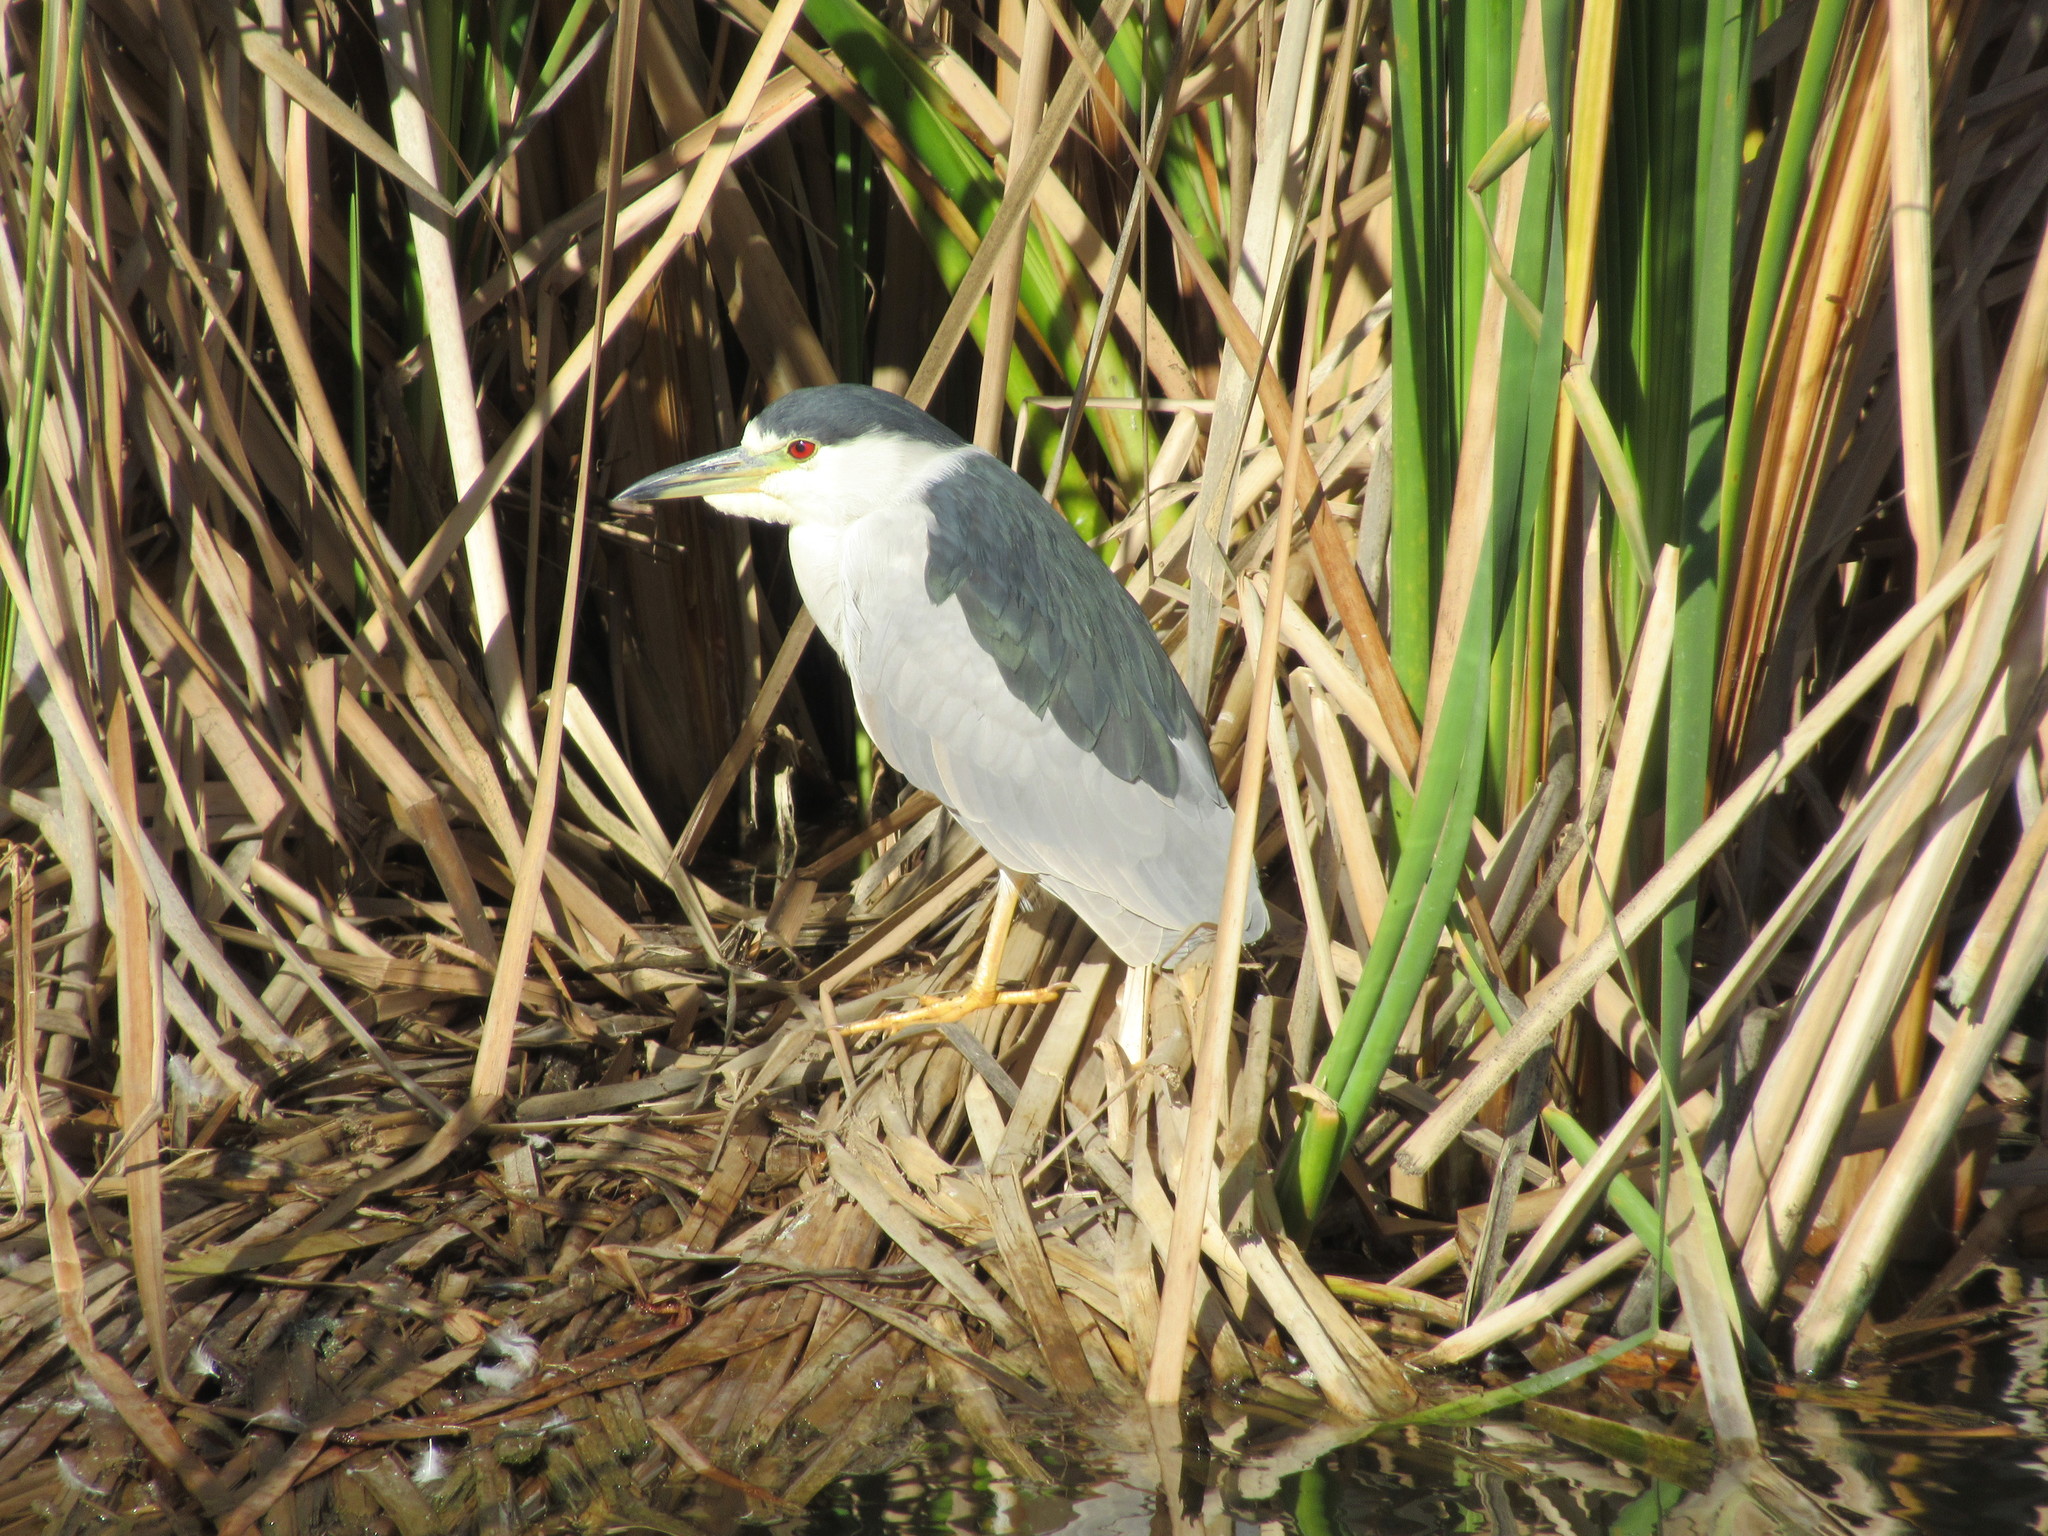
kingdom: Animalia
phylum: Chordata
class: Aves
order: Pelecaniformes
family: Ardeidae
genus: Nycticorax
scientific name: Nycticorax nycticorax
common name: Black-crowned night heron
